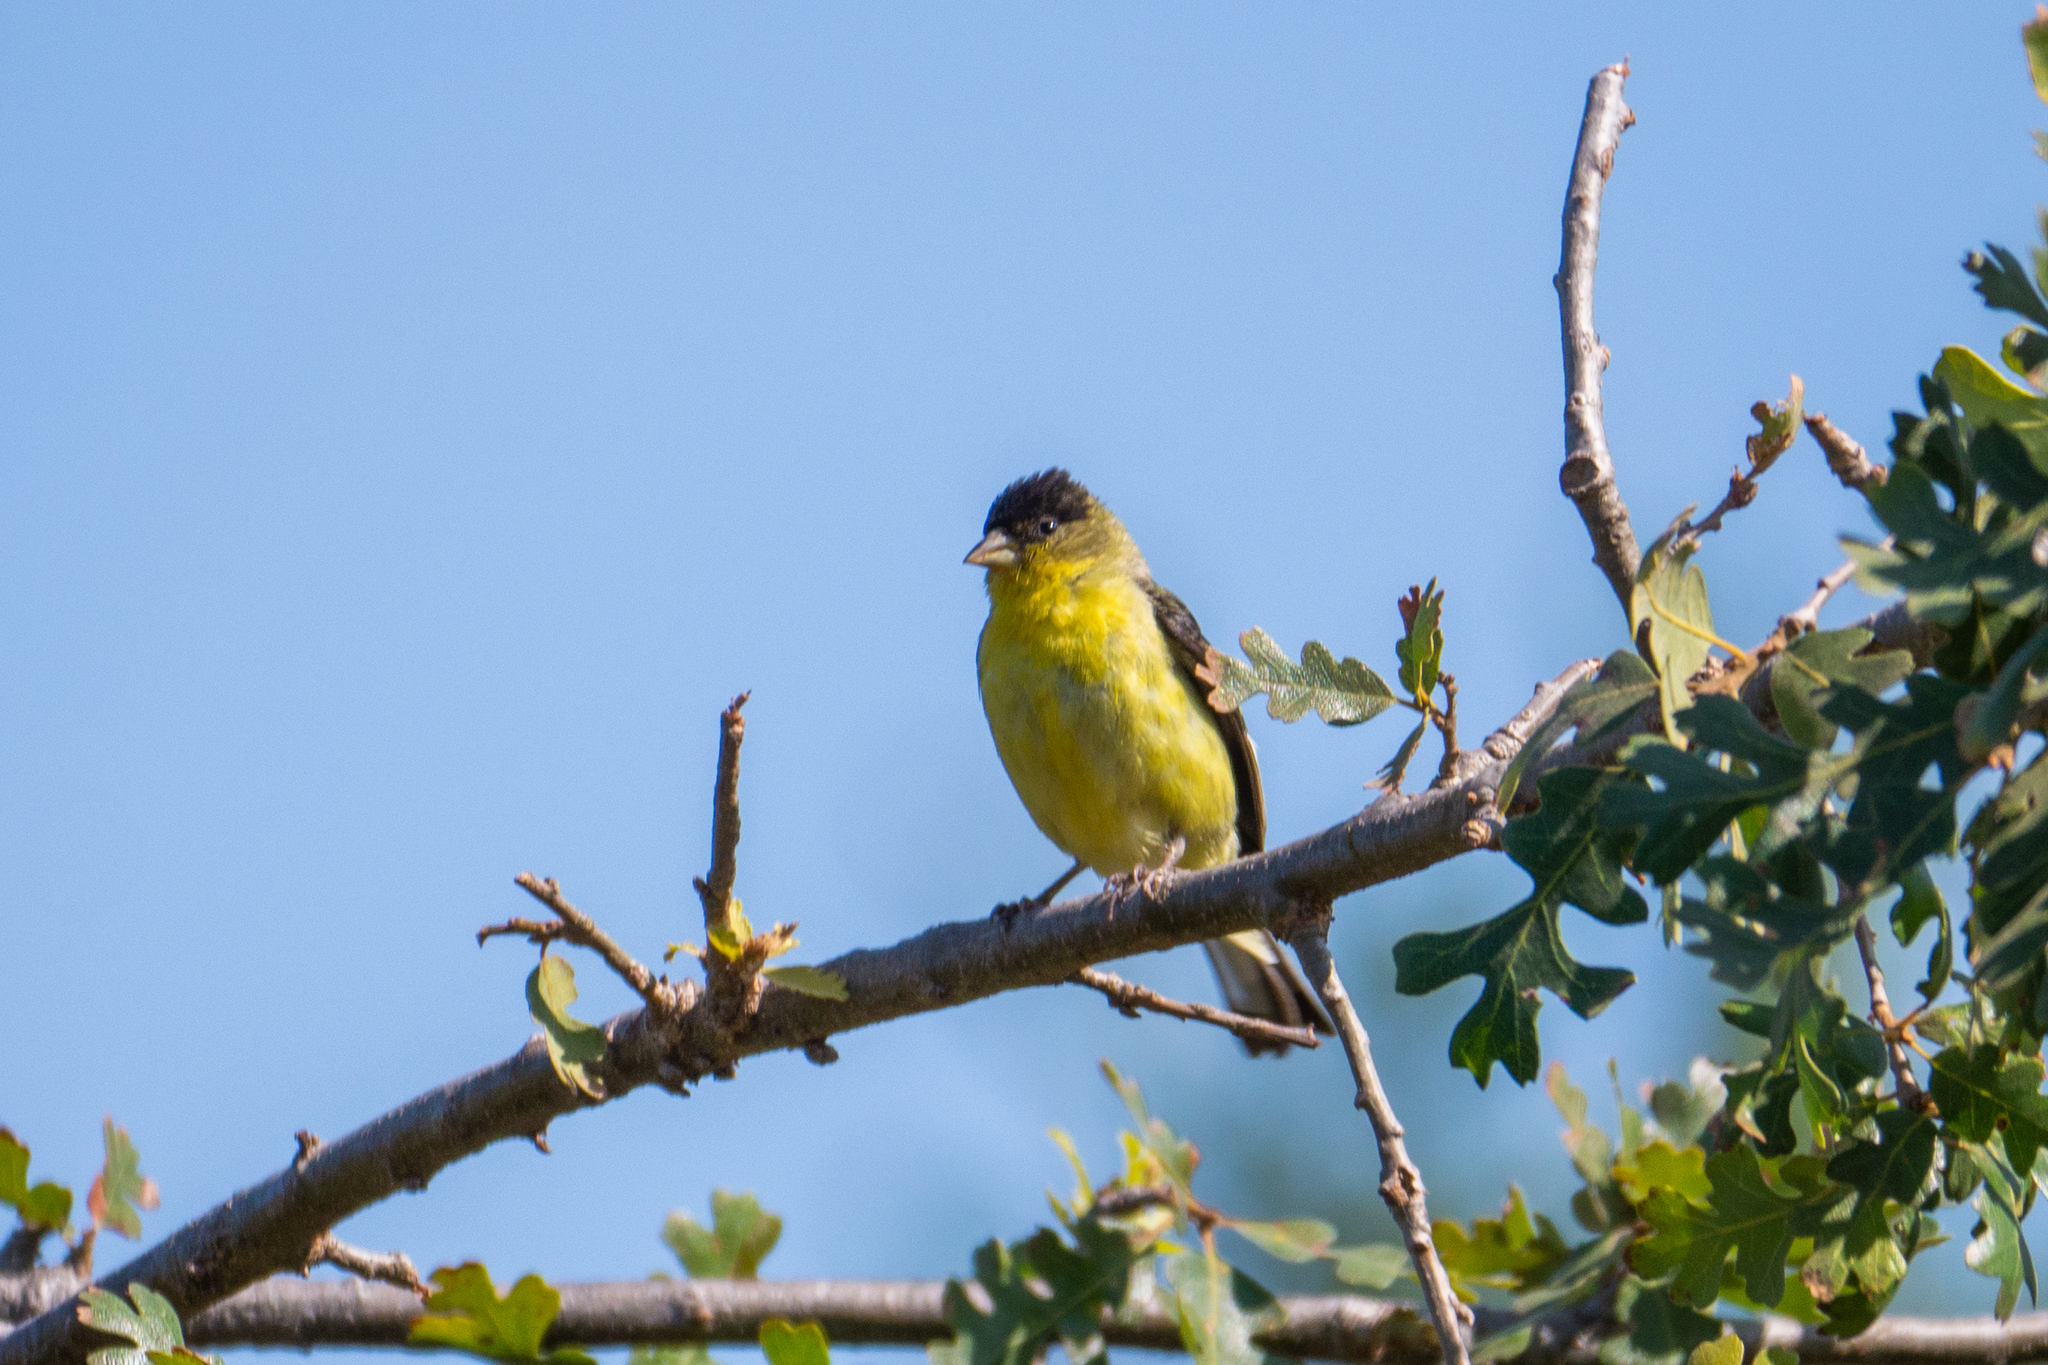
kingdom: Animalia
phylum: Chordata
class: Aves
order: Passeriformes
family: Fringillidae
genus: Spinus
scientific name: Spinus psaltria
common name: Lesser goldfinch
